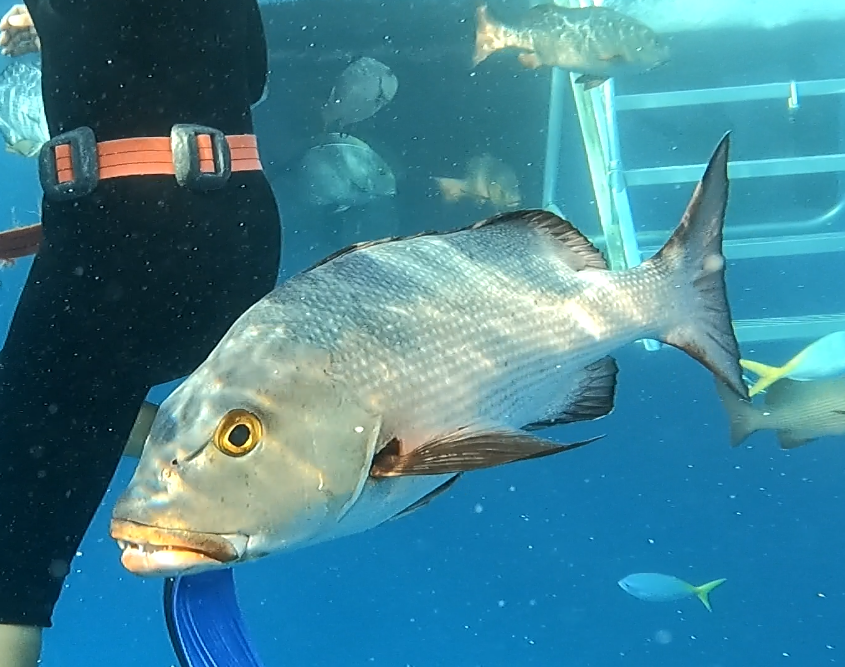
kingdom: Animalia
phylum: Chordata
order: Perciformes
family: Lutjanidae
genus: Lutjanus
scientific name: Lutjanus bohar
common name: Red bass
